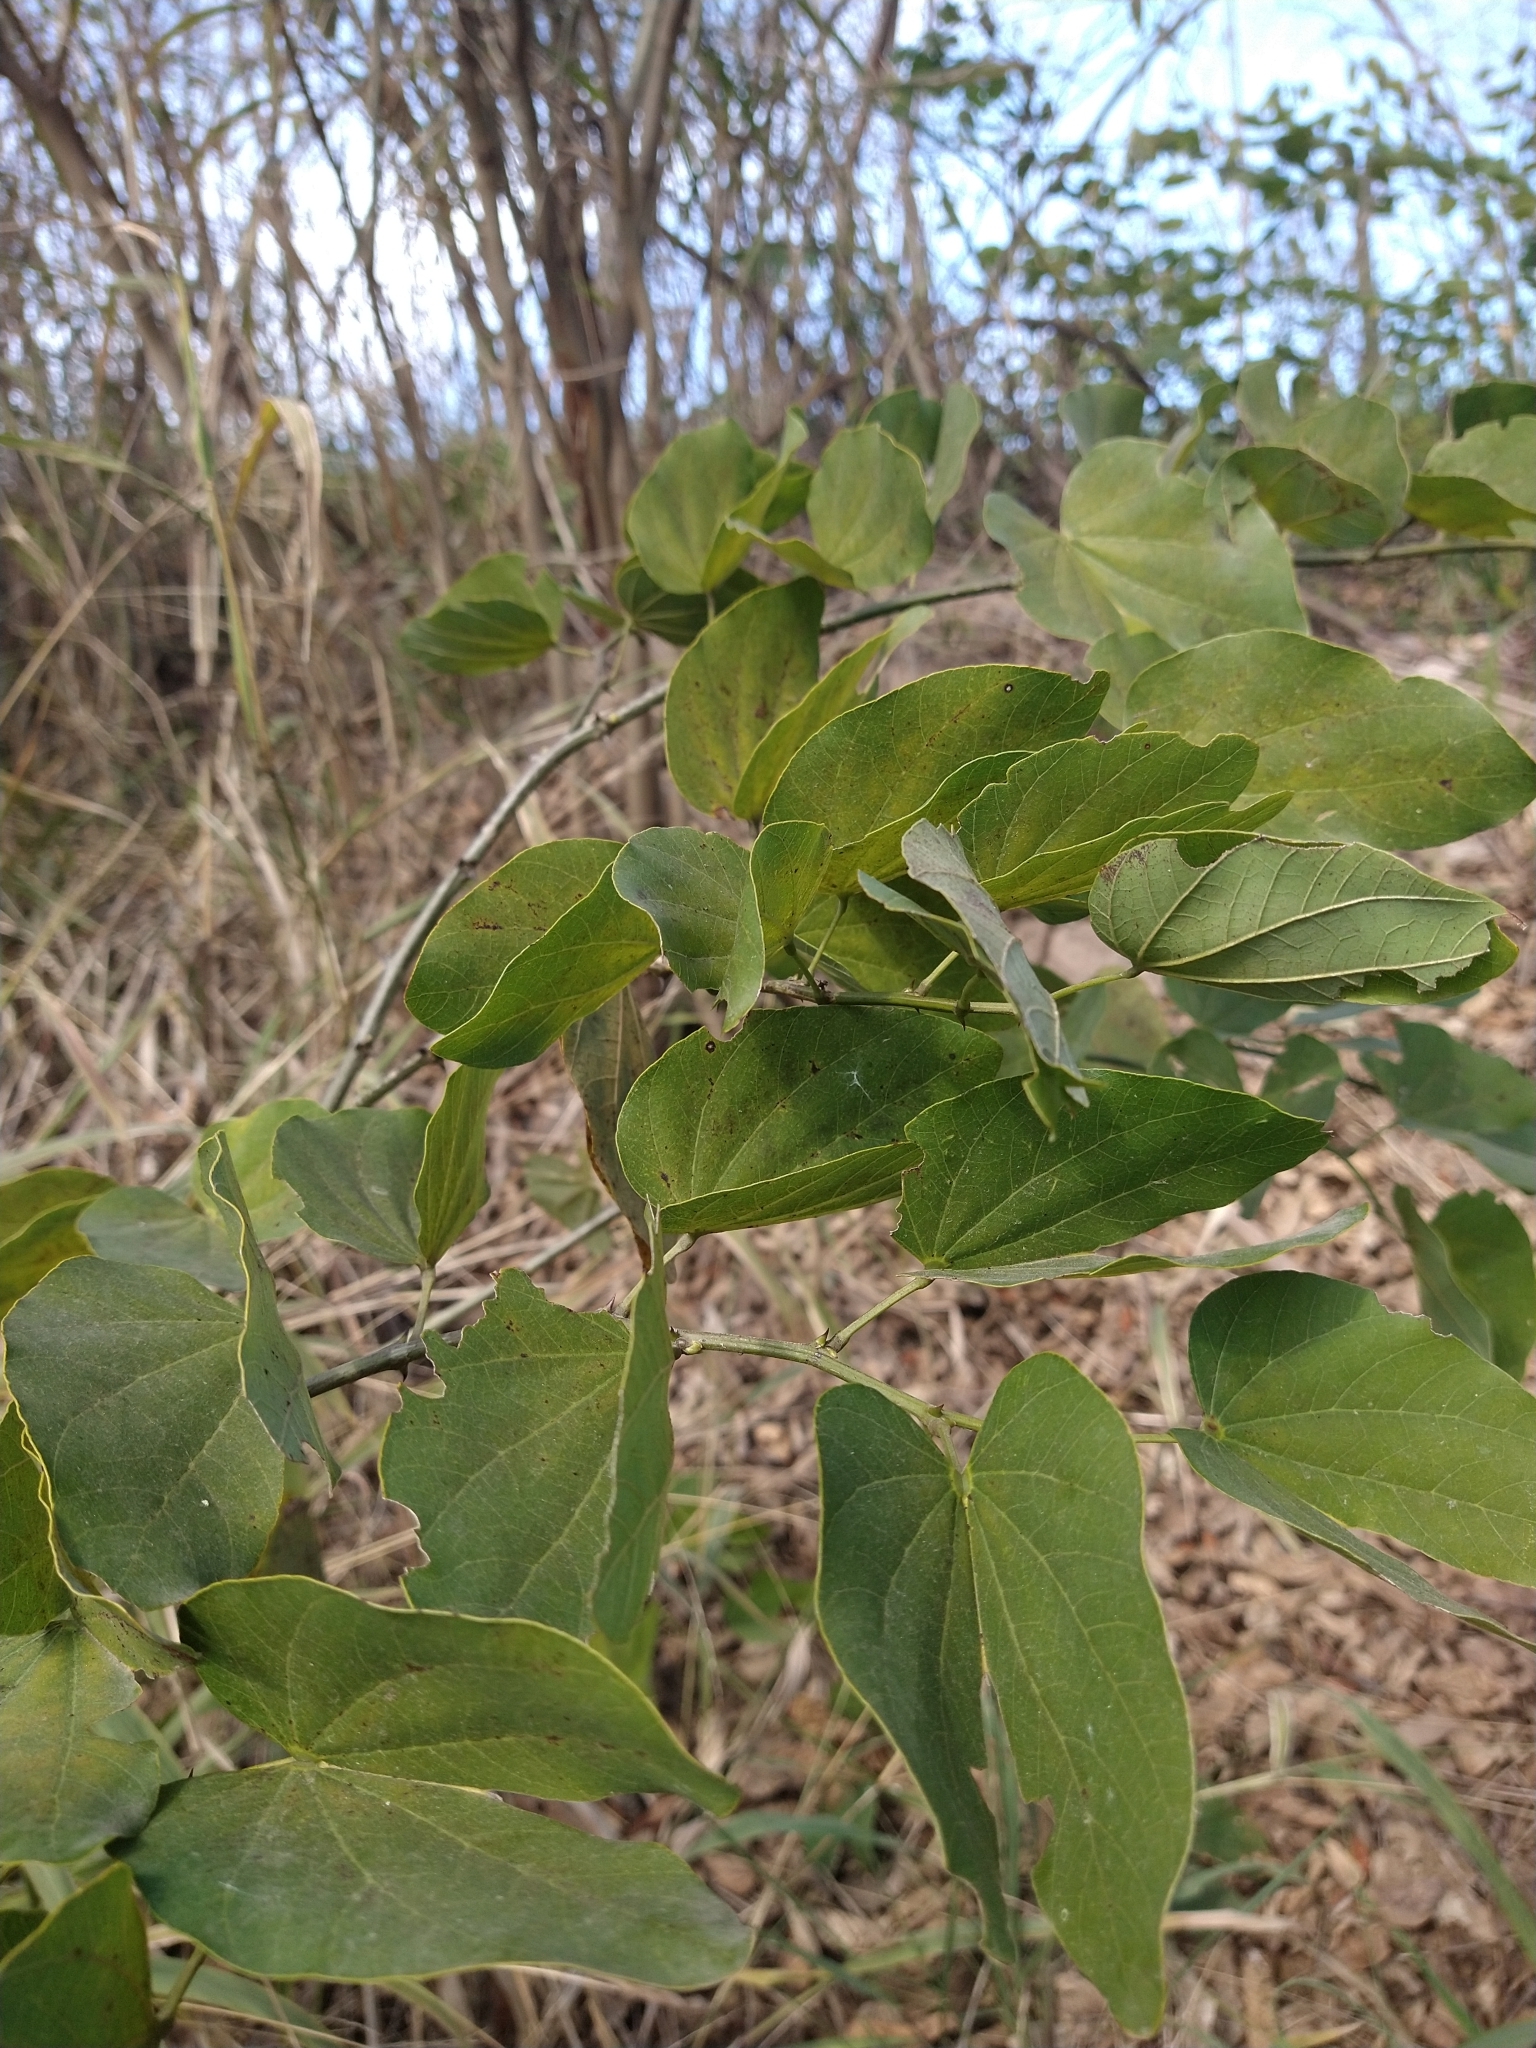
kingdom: Plantae
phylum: Tracheophyta
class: Magnoliopsida
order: Fabales
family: Fabaceae
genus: Bauhinia
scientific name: Bauhinia forficata
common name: Orchid tree
